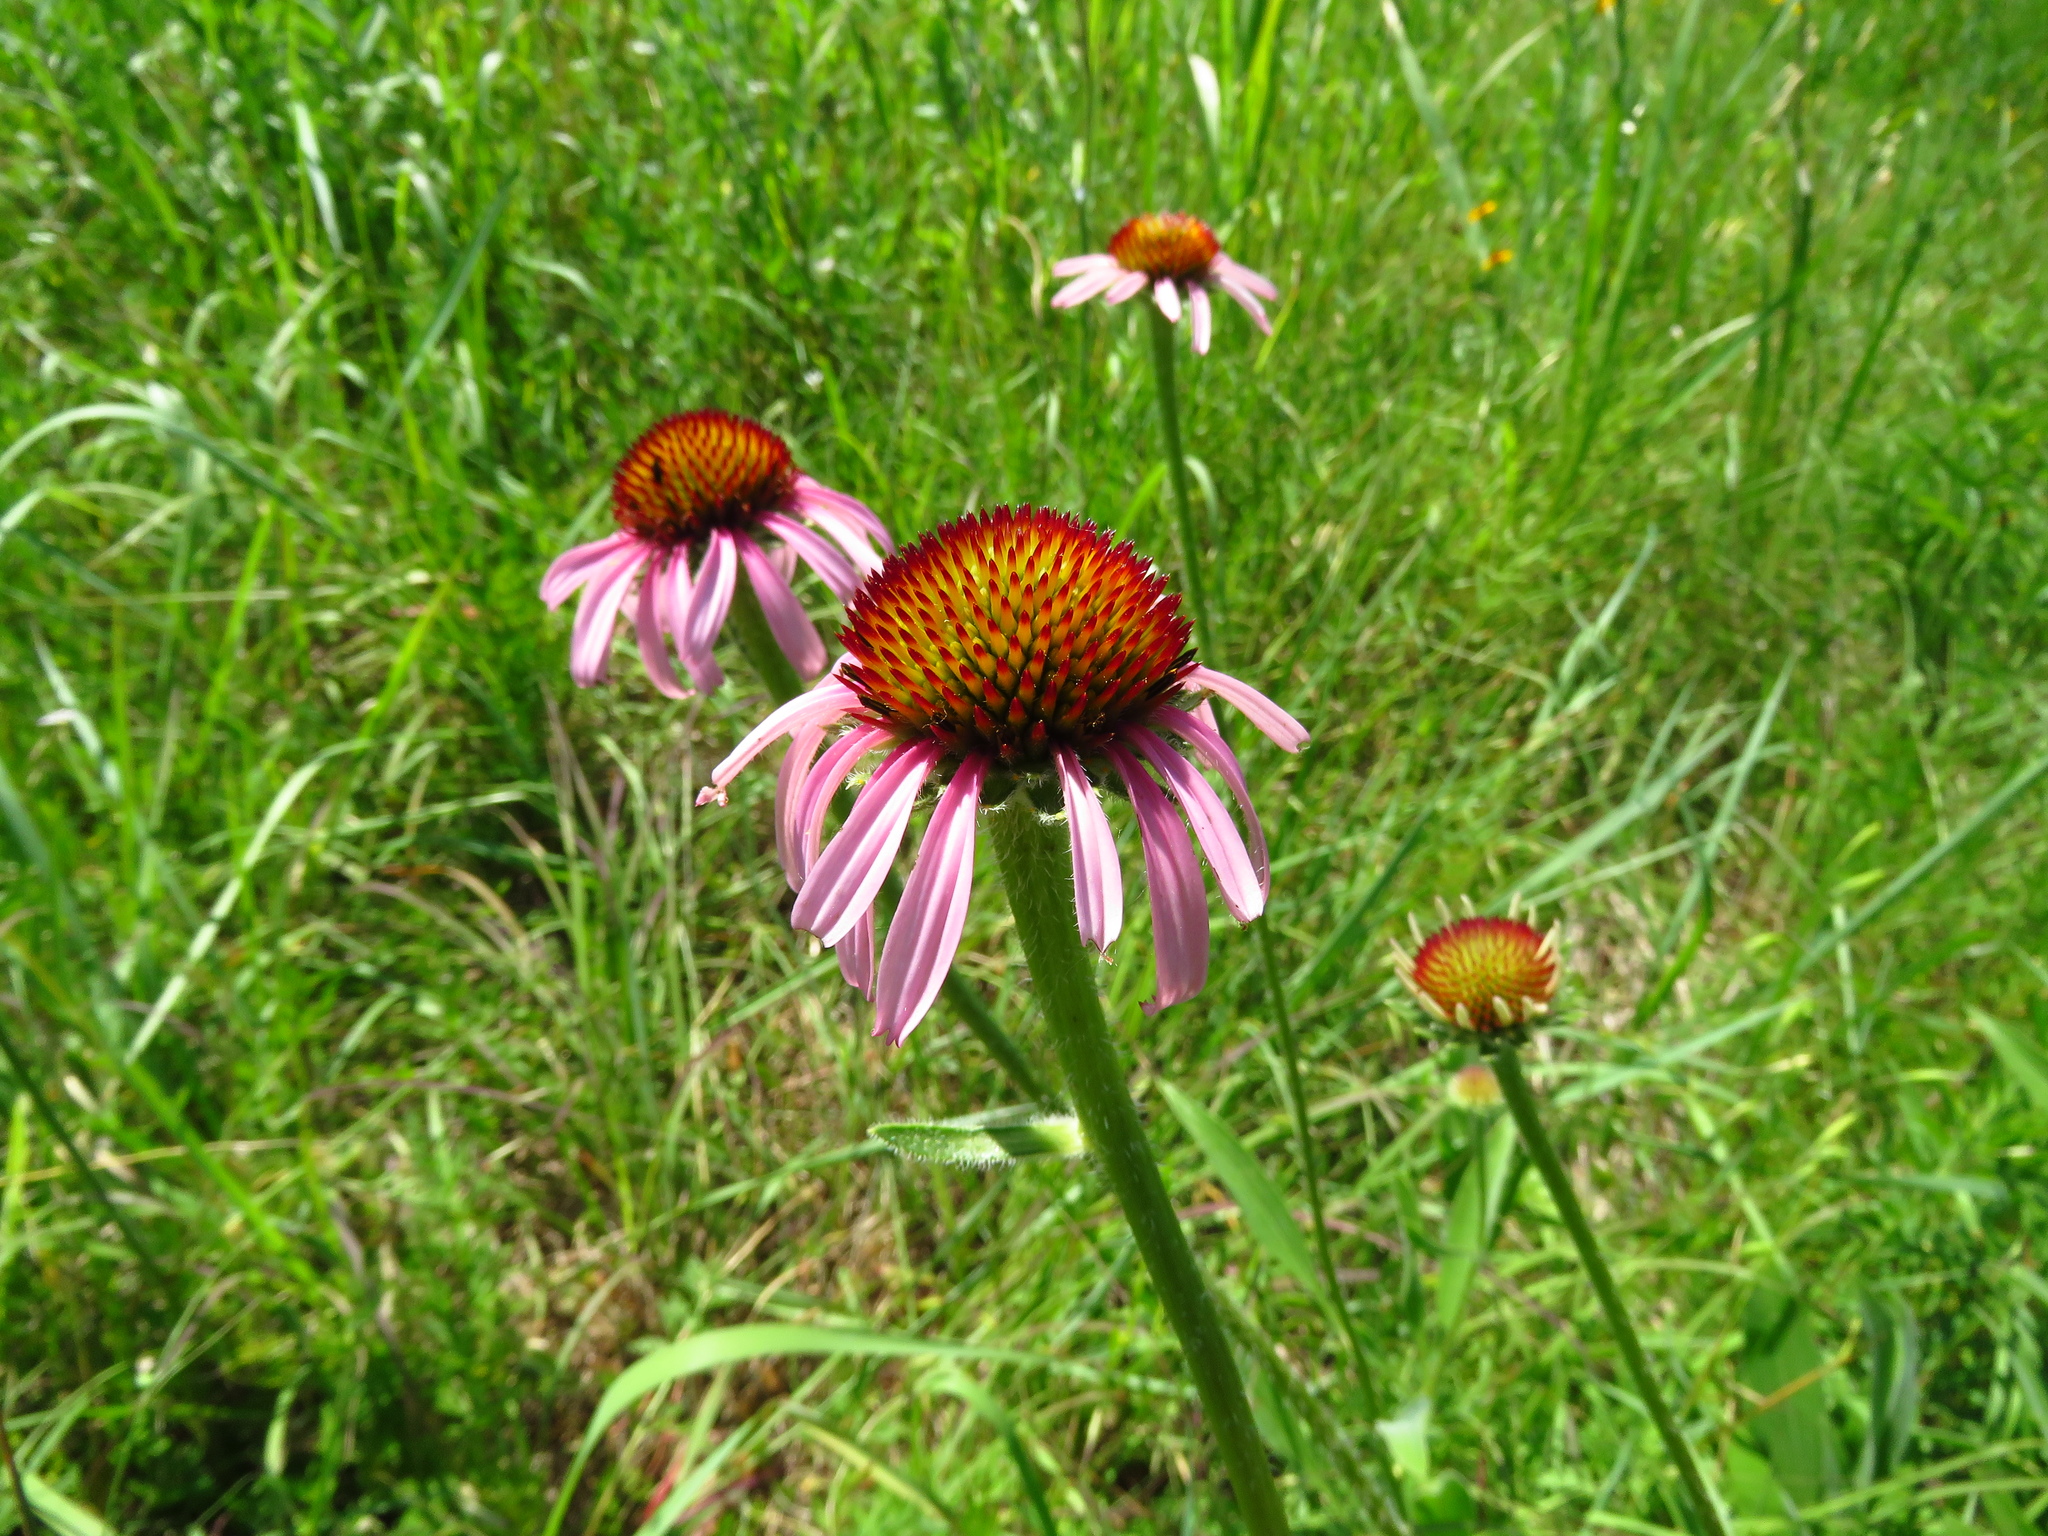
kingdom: Plantae
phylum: Tracheophyta
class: Magnoliopsida
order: Asterales
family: Asteraceae
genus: Echinacea
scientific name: Echinacea angustifolia
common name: Black-sampson echinacea
